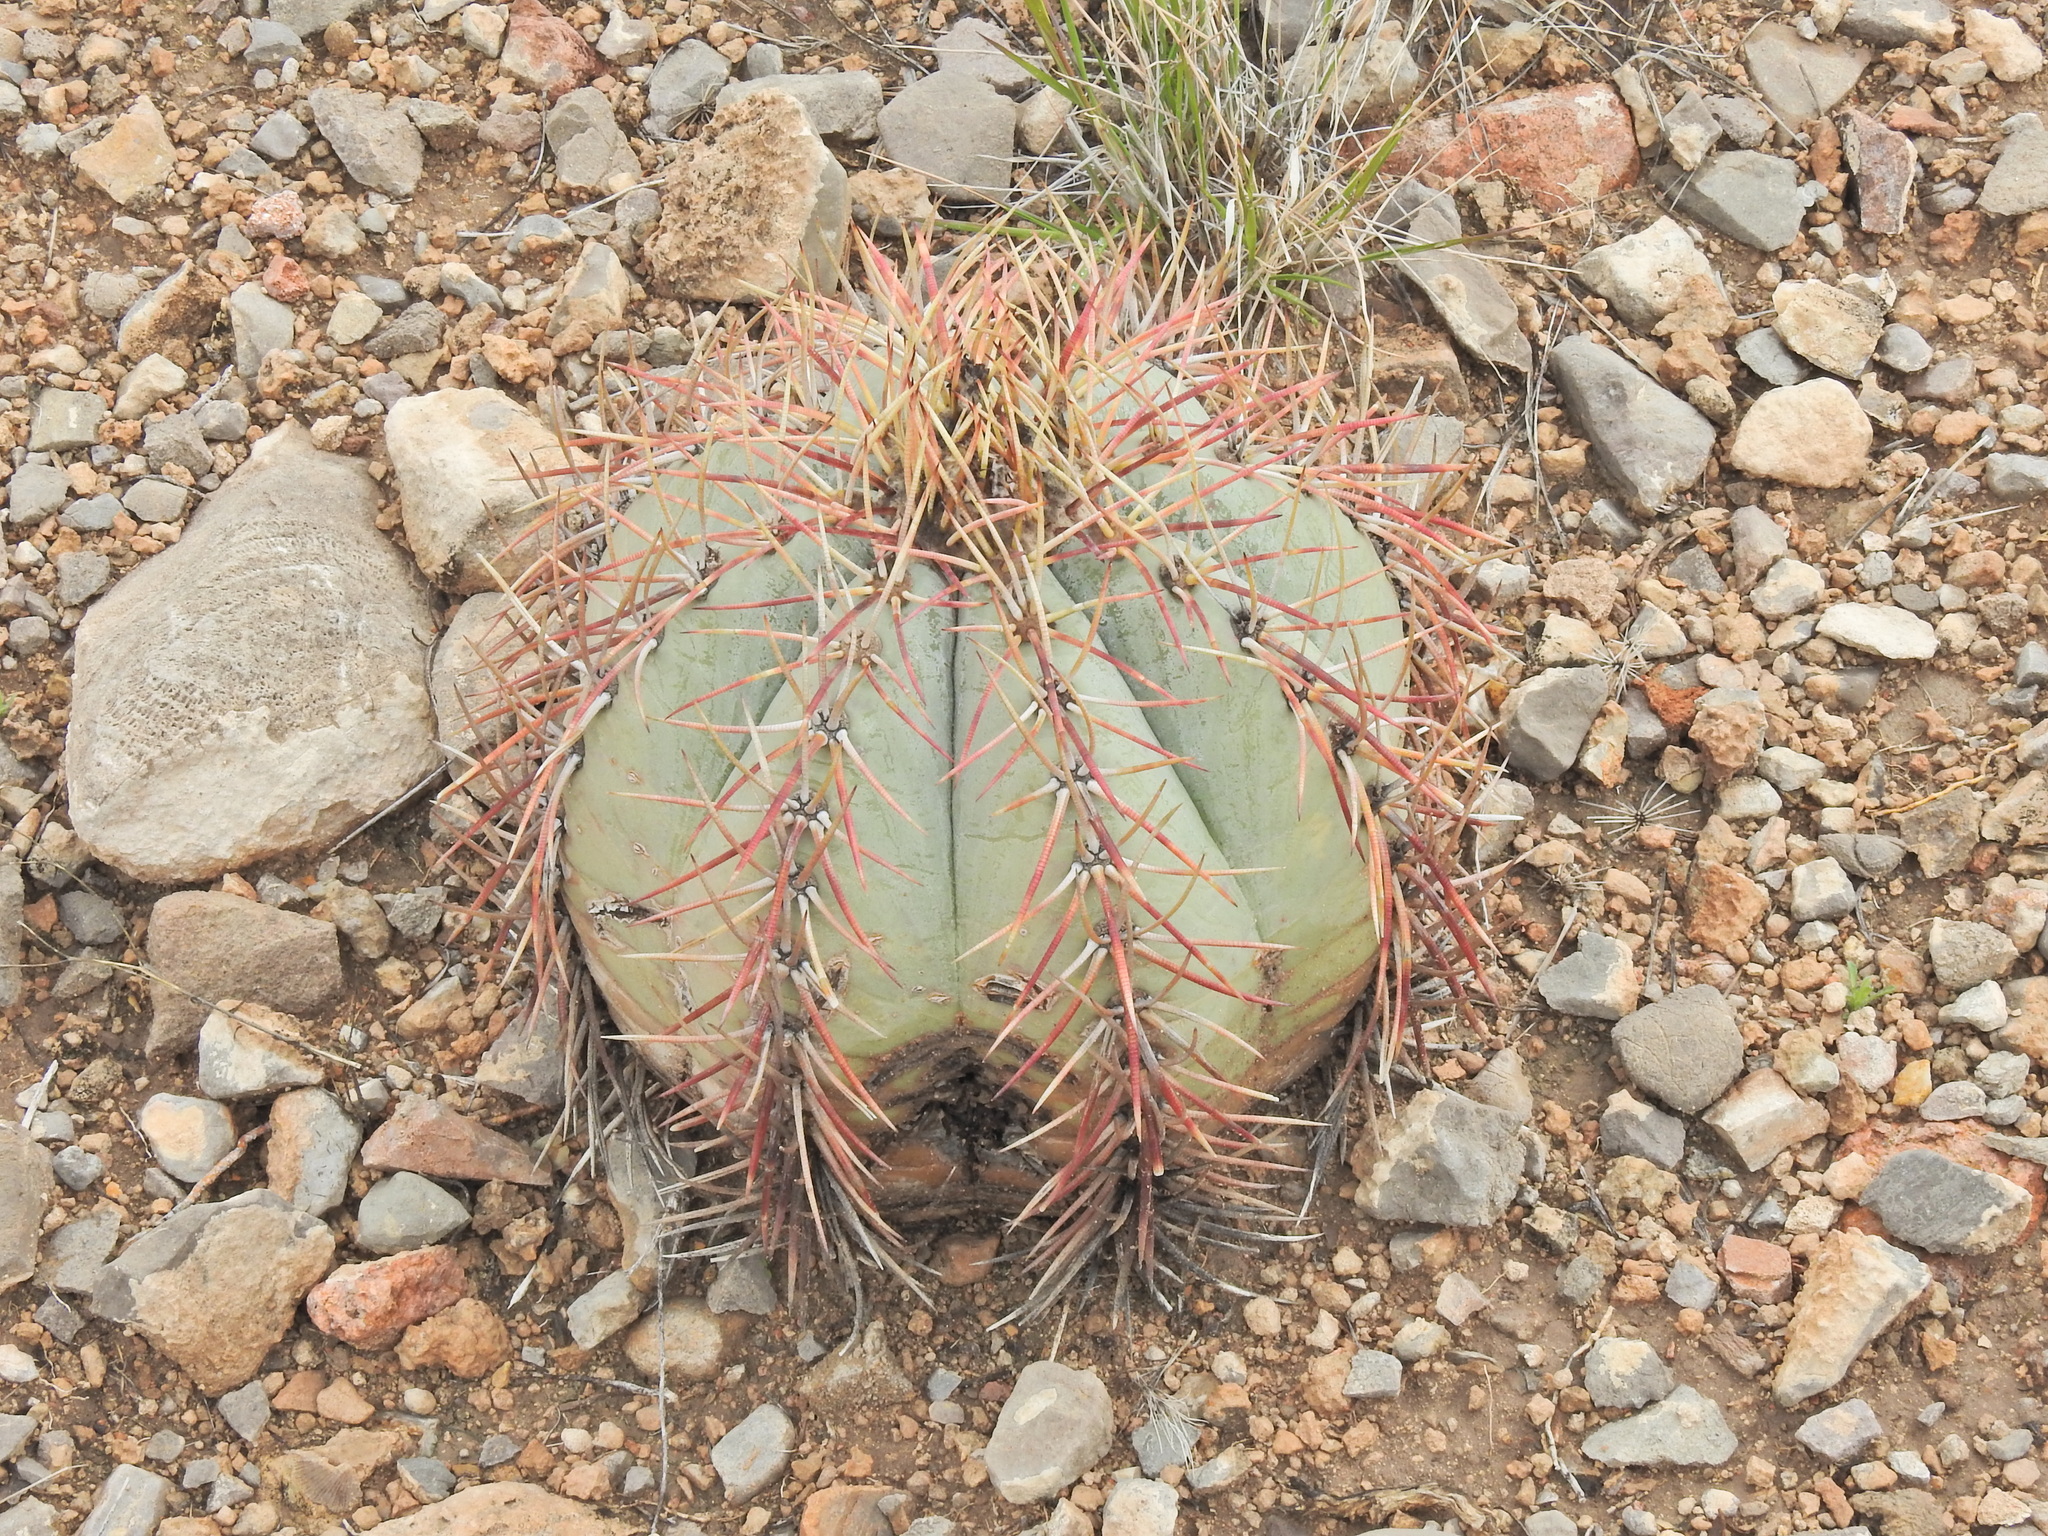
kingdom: Plantae
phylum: Tracheophyta
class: Magnoliopsida
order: Caryophyllales
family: Cactaceae
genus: Echinocactus
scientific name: Echinocactus horizonthalonius
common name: Devilshead
